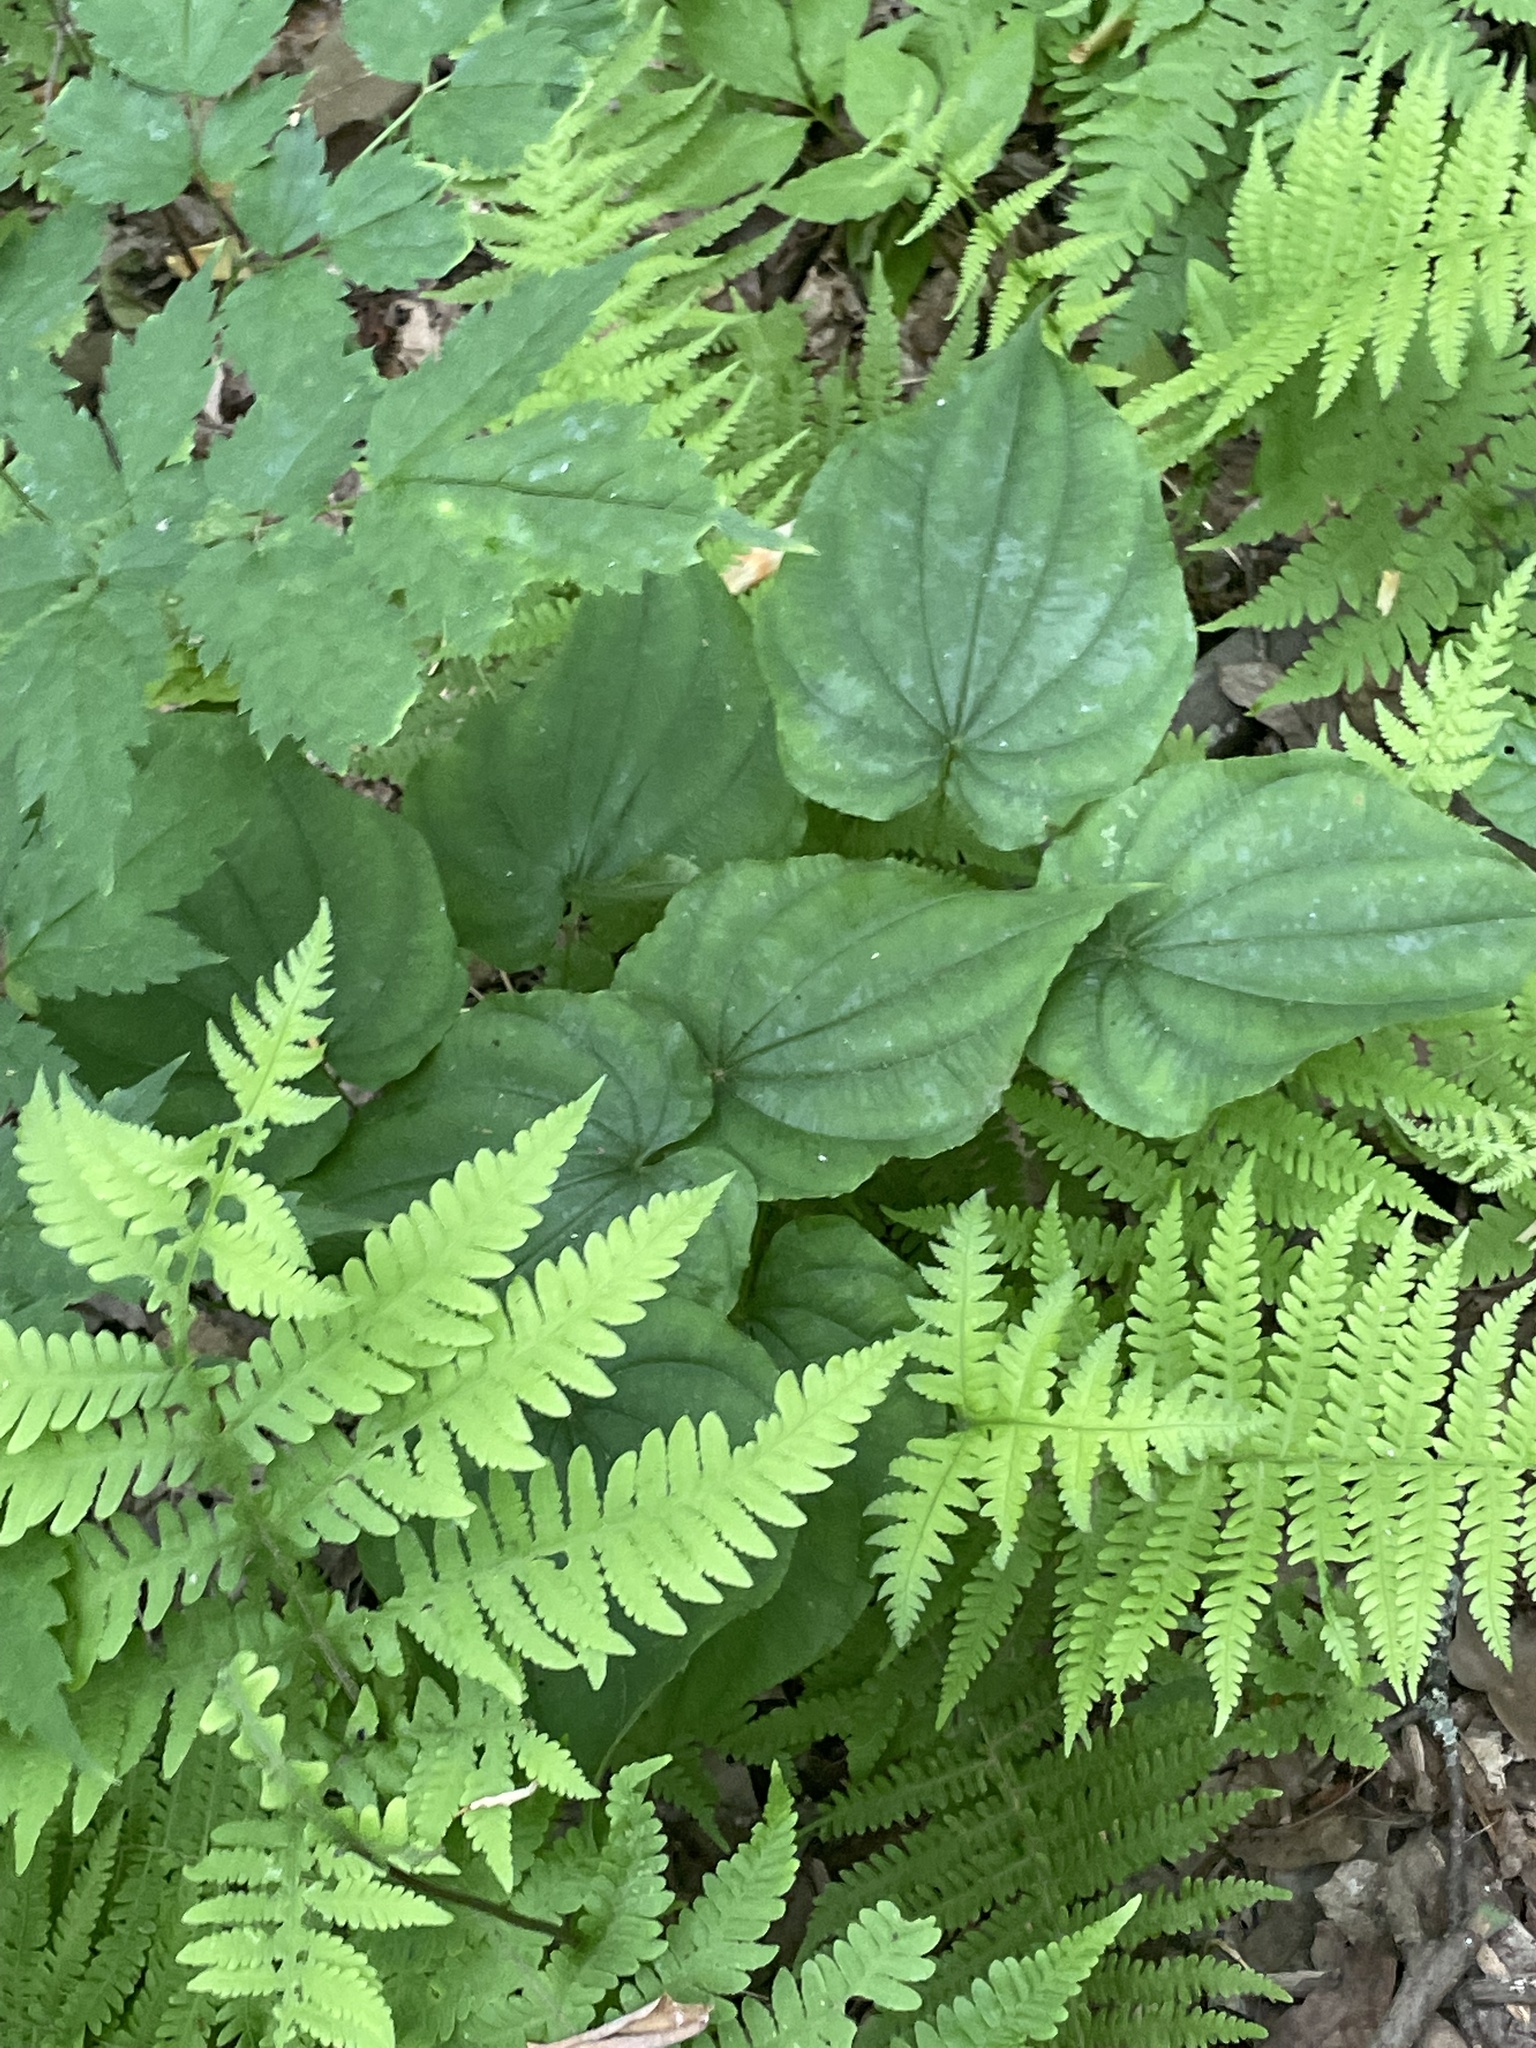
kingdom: Plantae
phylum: Tracheophyta
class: Liliopsida
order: Dioscoreales
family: Dioscoreaceae
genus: Dioscorea
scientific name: Dioscorea villosa
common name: Wild yam
